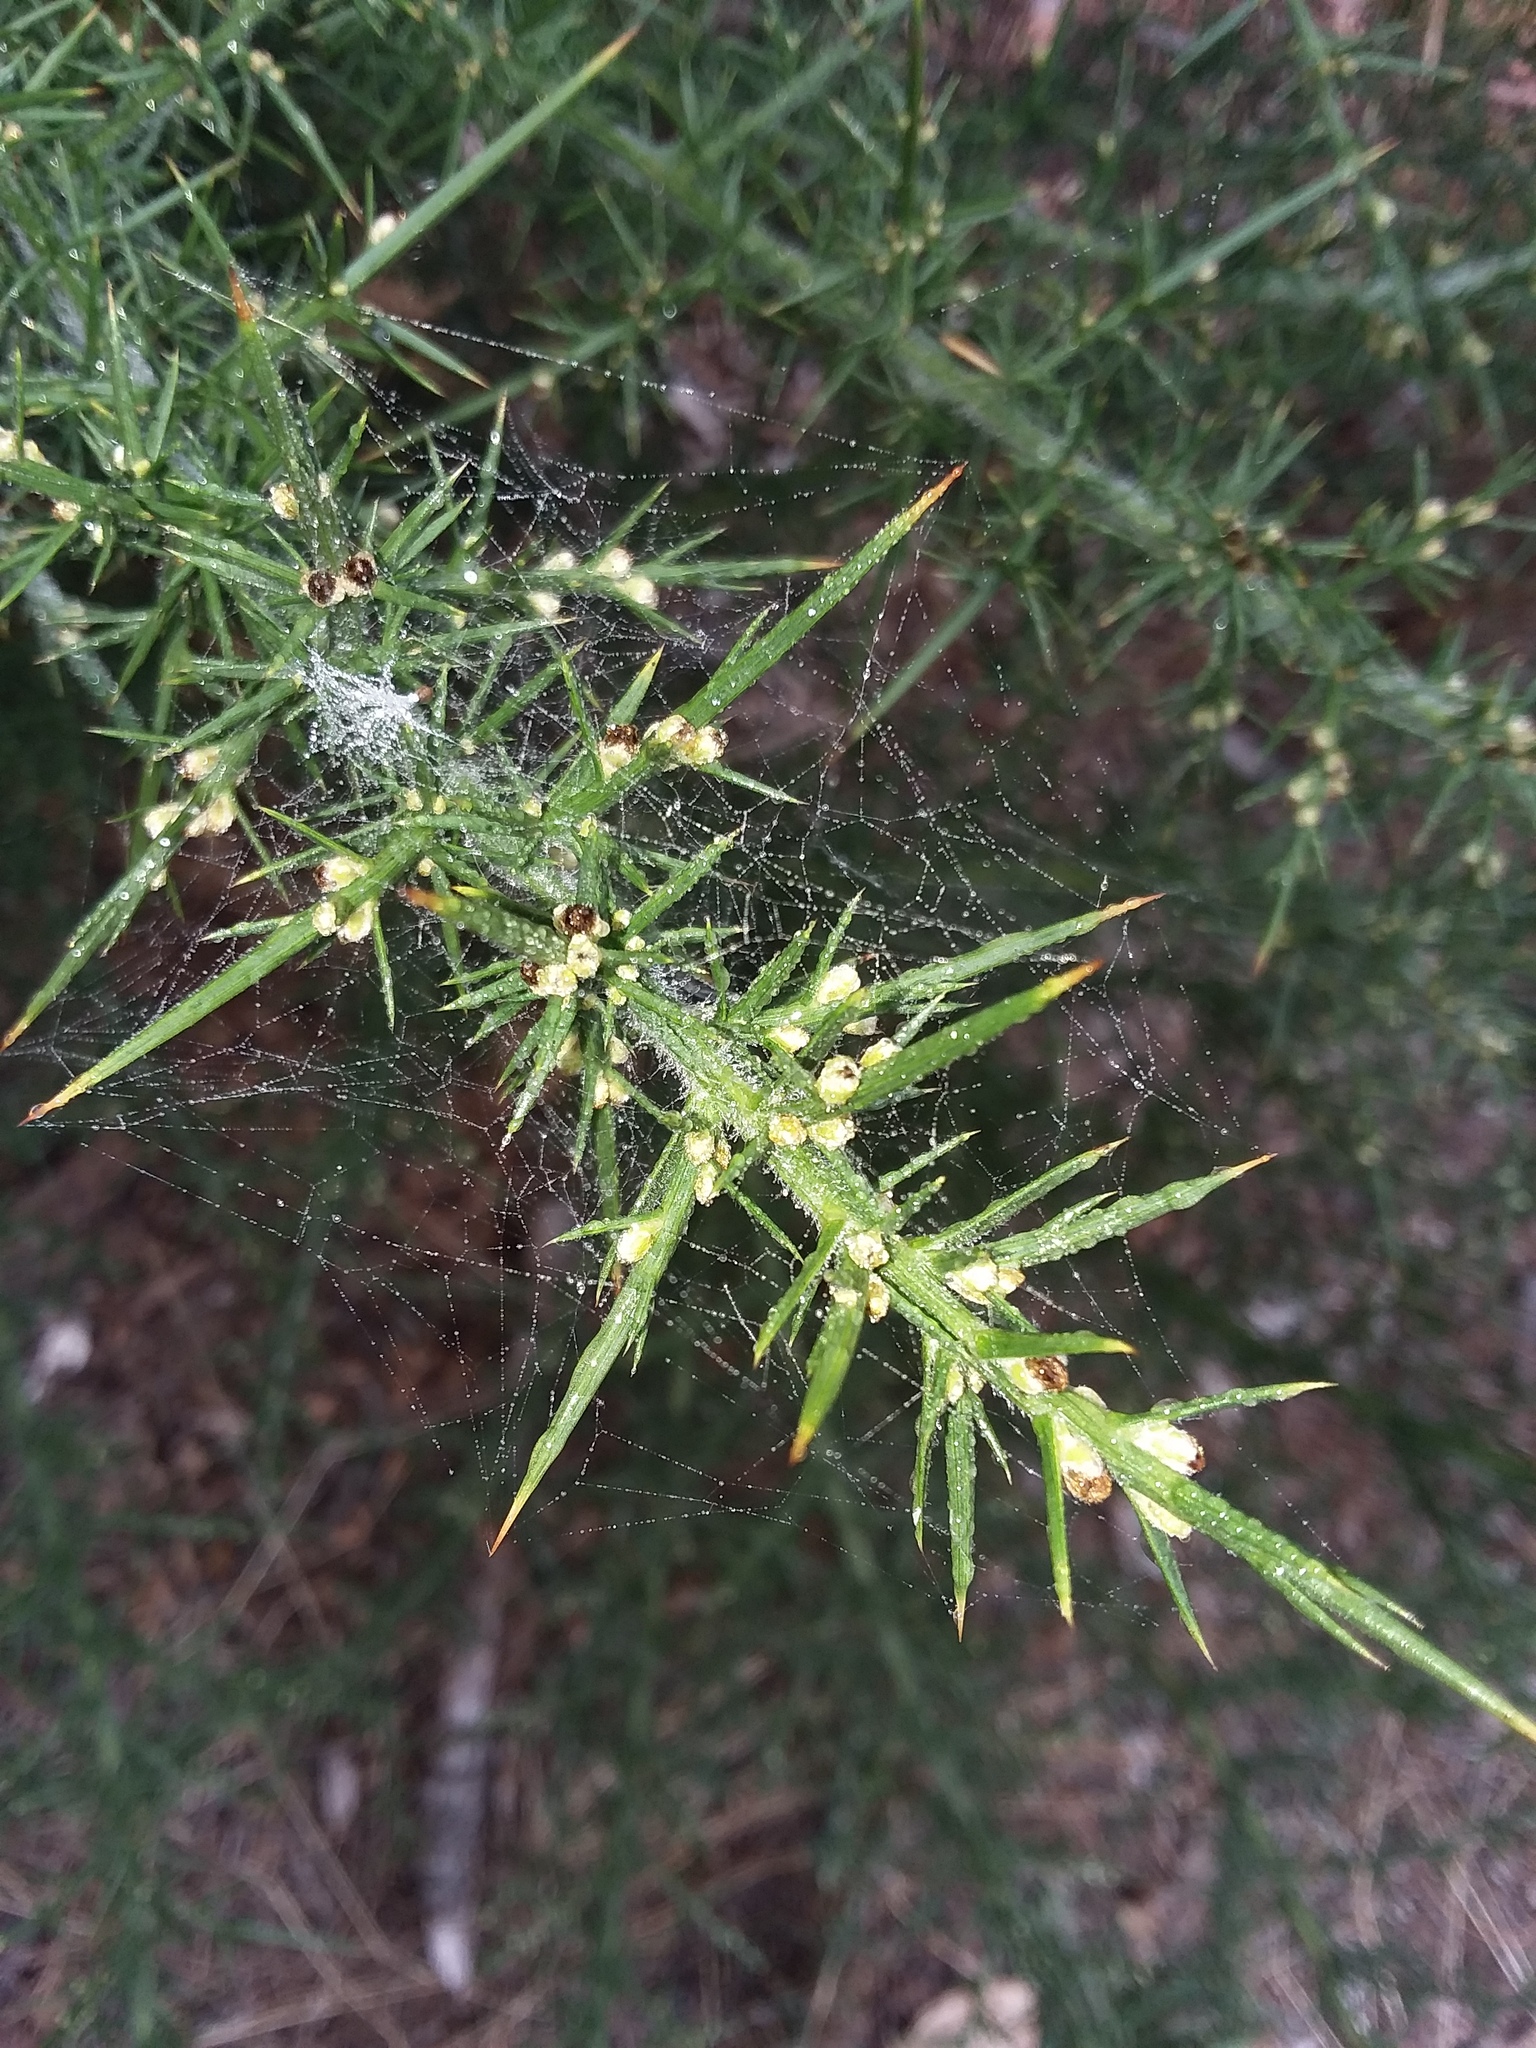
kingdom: Plantae
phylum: Tracheophyta
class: Magnoliopsida
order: Fabales
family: Fabaceae
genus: Ulex
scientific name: Ulex europaeus
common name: Common gorse
